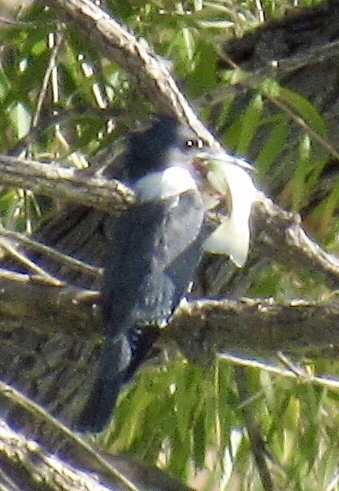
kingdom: Animalia
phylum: Chordata
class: Aves
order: Coraciiformes
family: Alcedinidae
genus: Megaceryle
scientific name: Megaceryle alcyon
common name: Belted kingfisher
